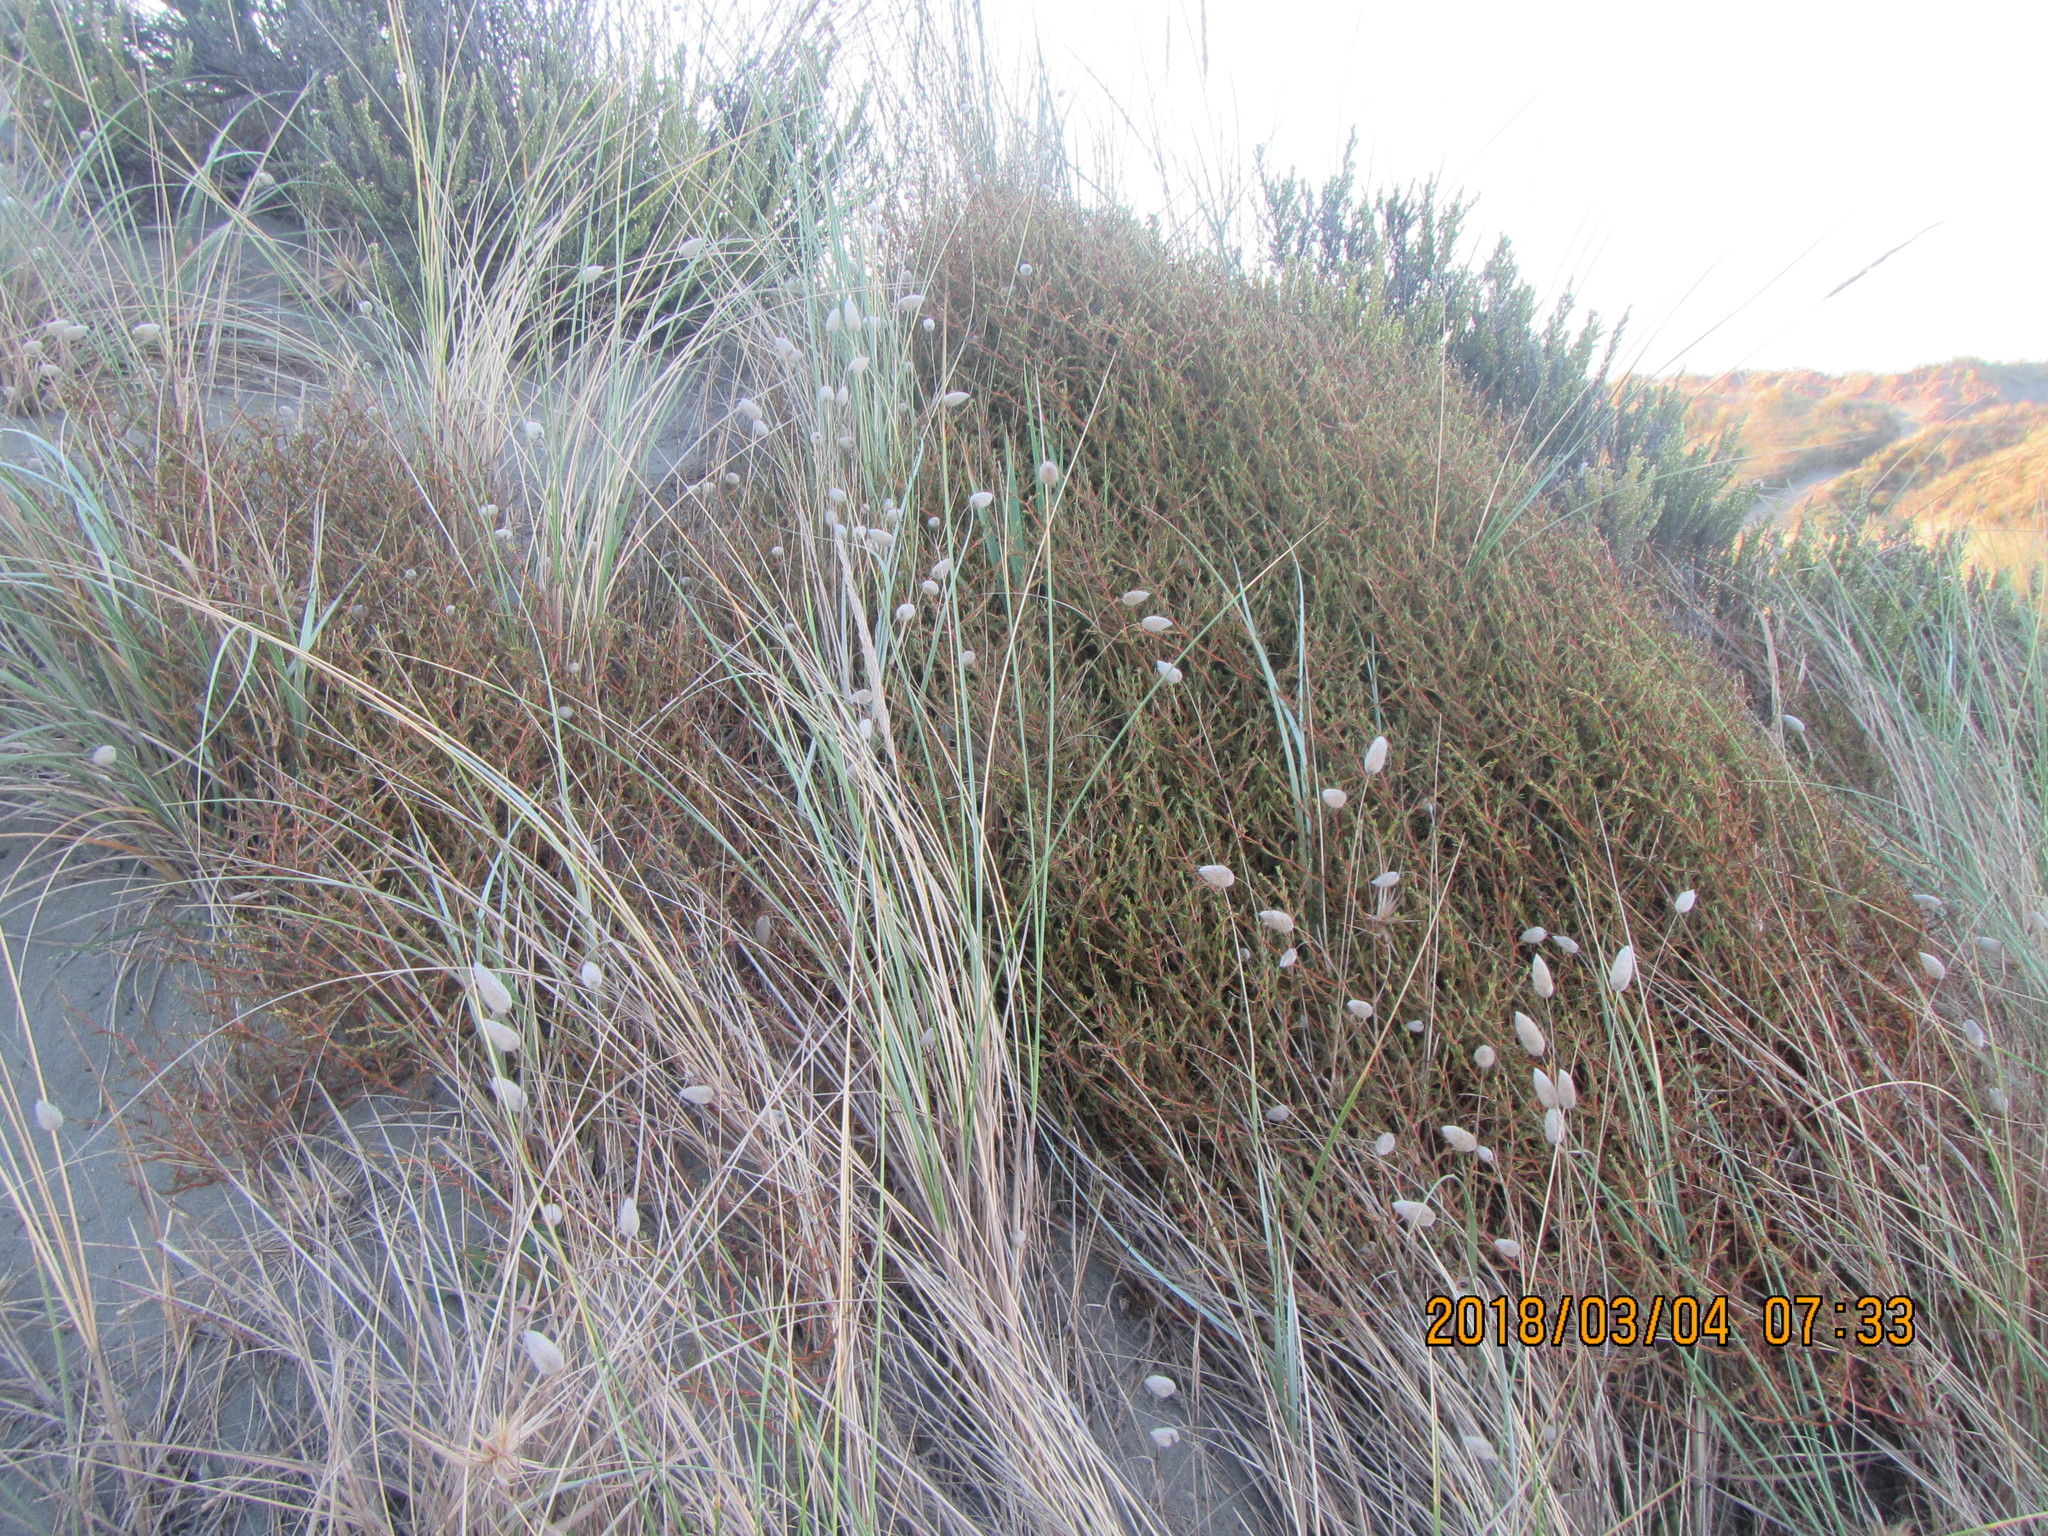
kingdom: Plantae
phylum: Tracheophyta
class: Magnoliopsida
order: Gentianales
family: Rubiaceae
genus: Coprosma
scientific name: Coprosma acerosa
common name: Sand coprosma
